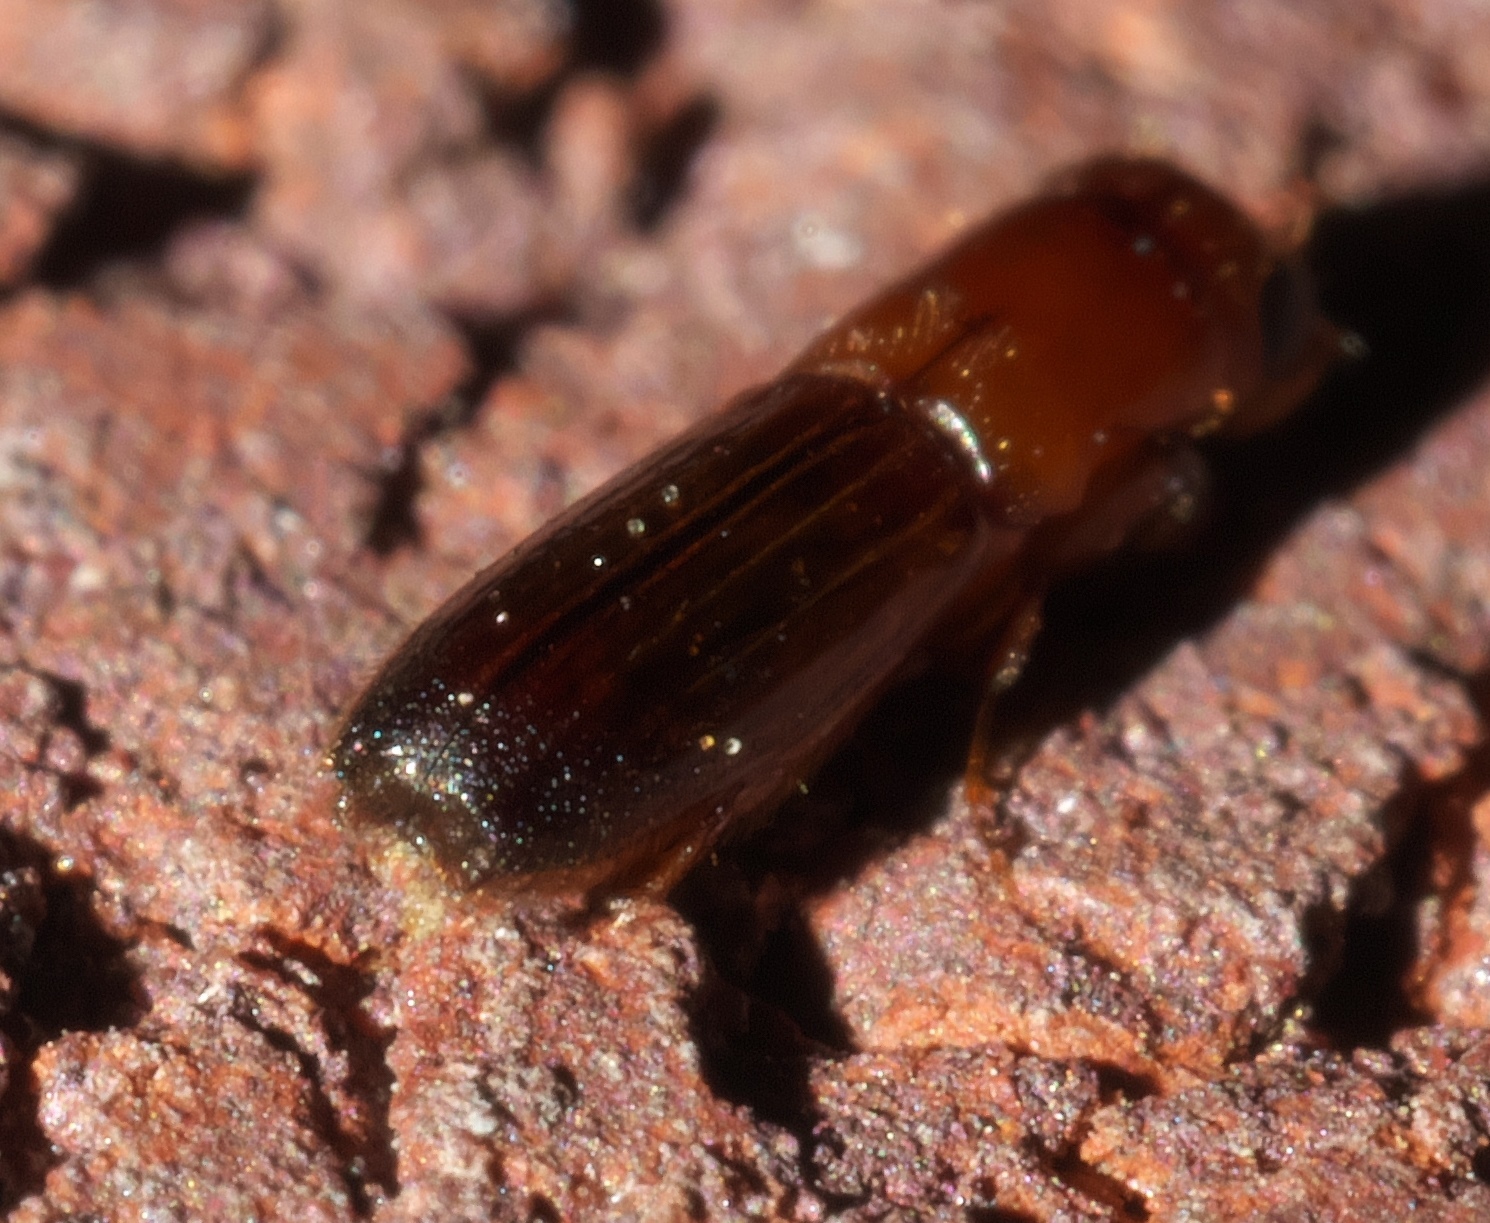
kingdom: Animalia
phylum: Arthropoda
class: Insecta
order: Coleoptera
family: Curculionidae
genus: Euplatypus
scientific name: Euplatypus compositus
